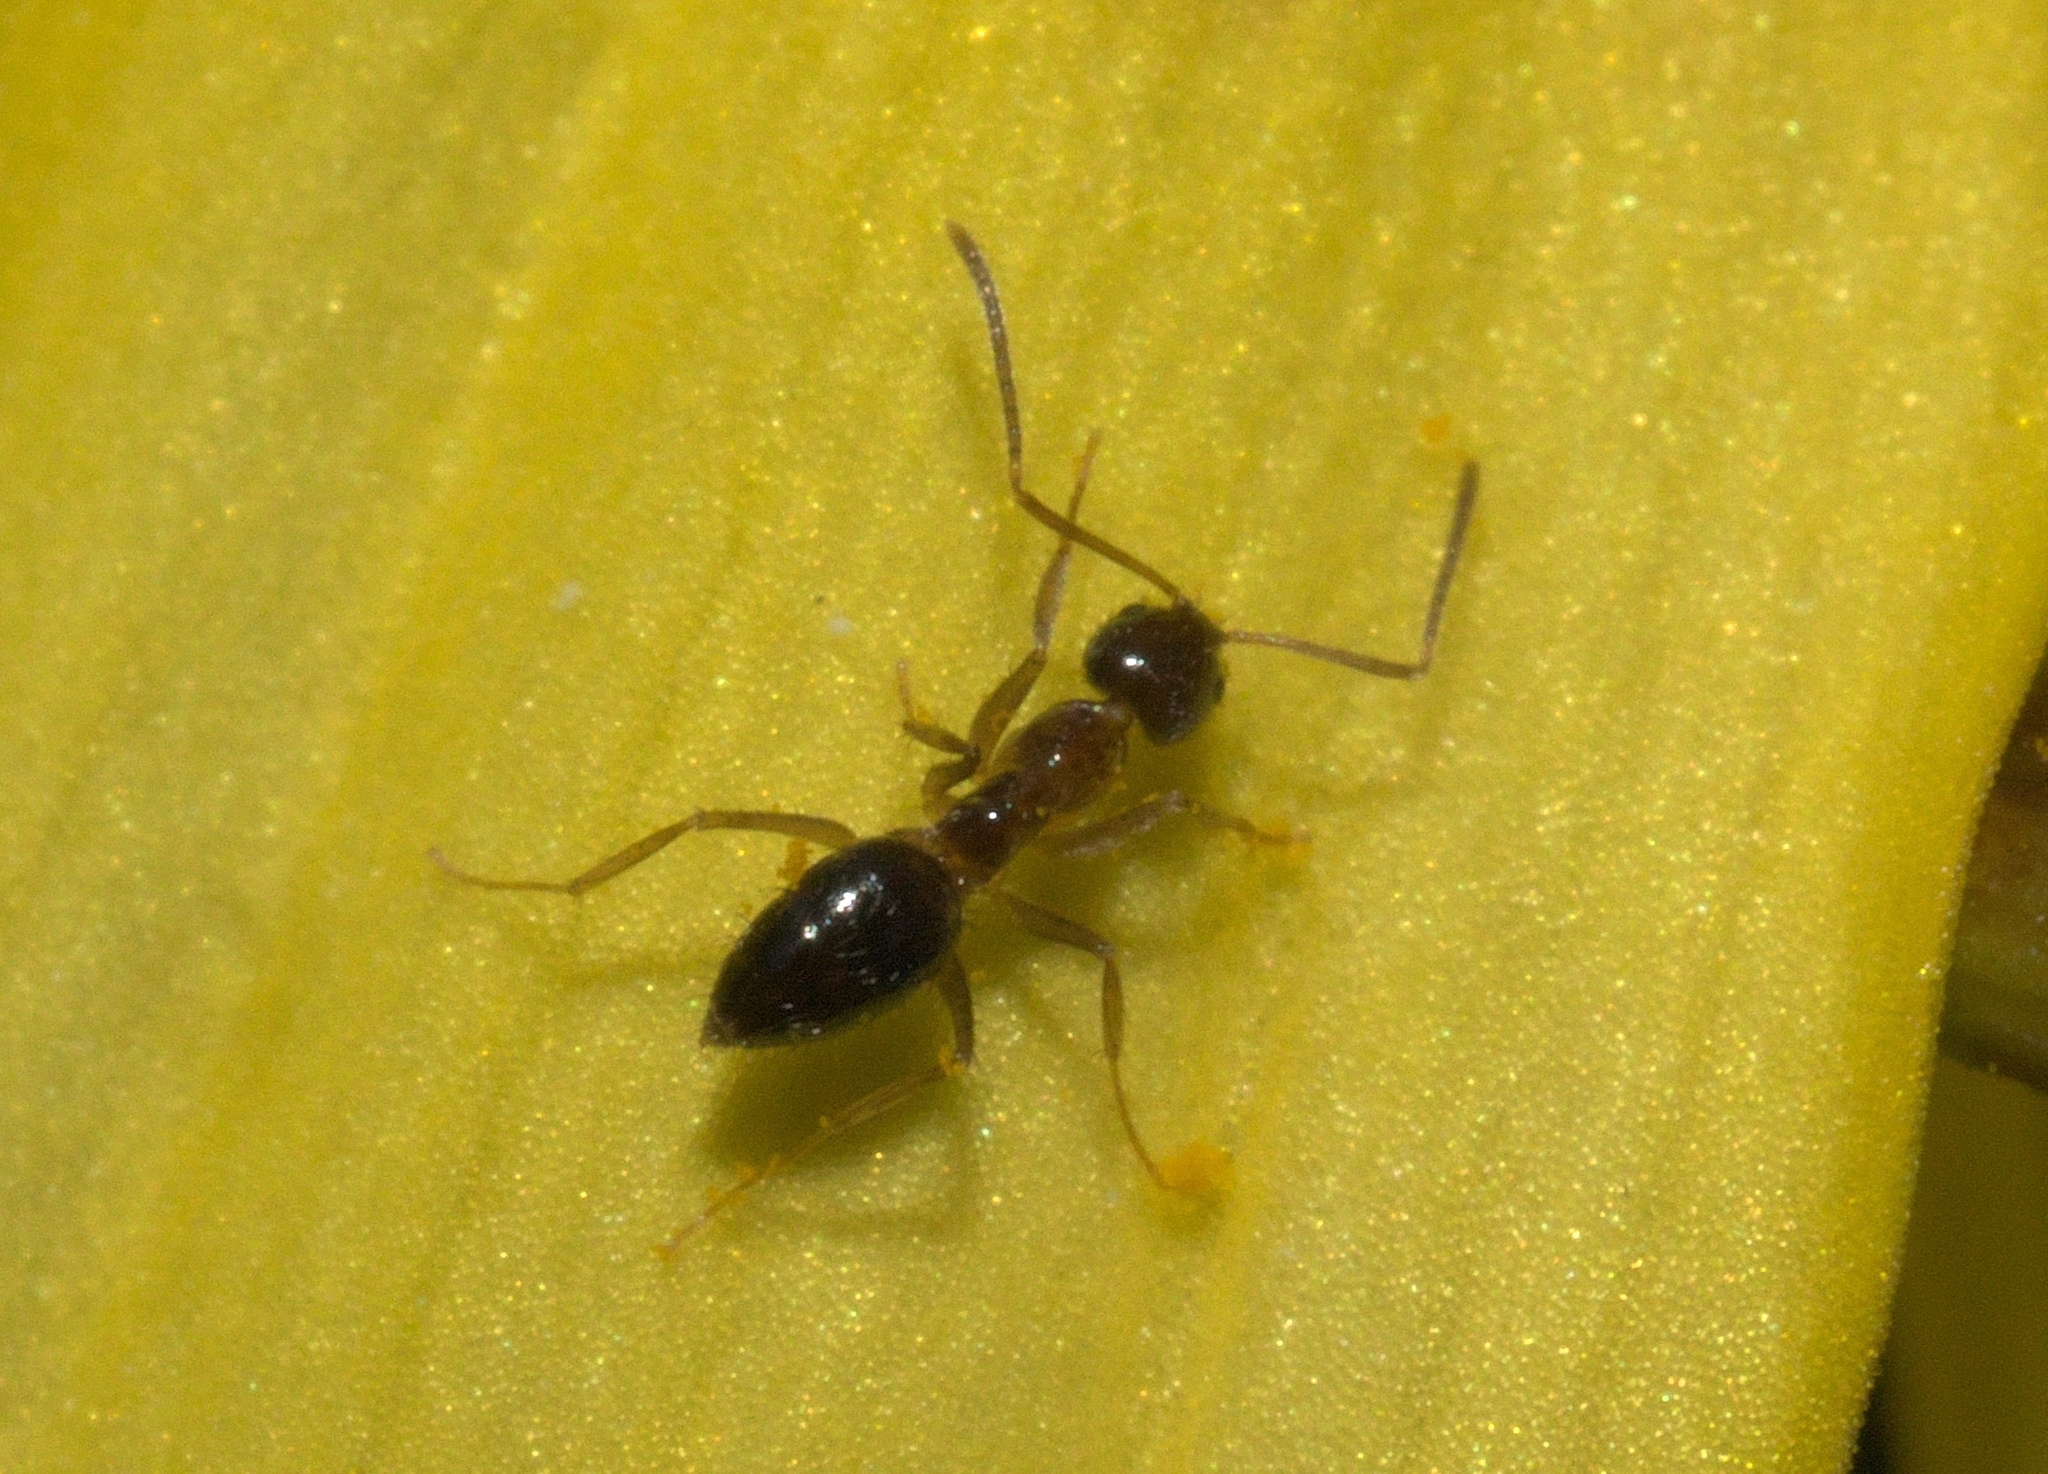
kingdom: Animalia
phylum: Arthropoda
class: Insecta
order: Hymenoptera
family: Formicidae
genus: Prenolepis
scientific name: Prenolepis imparis
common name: Small honey ant
